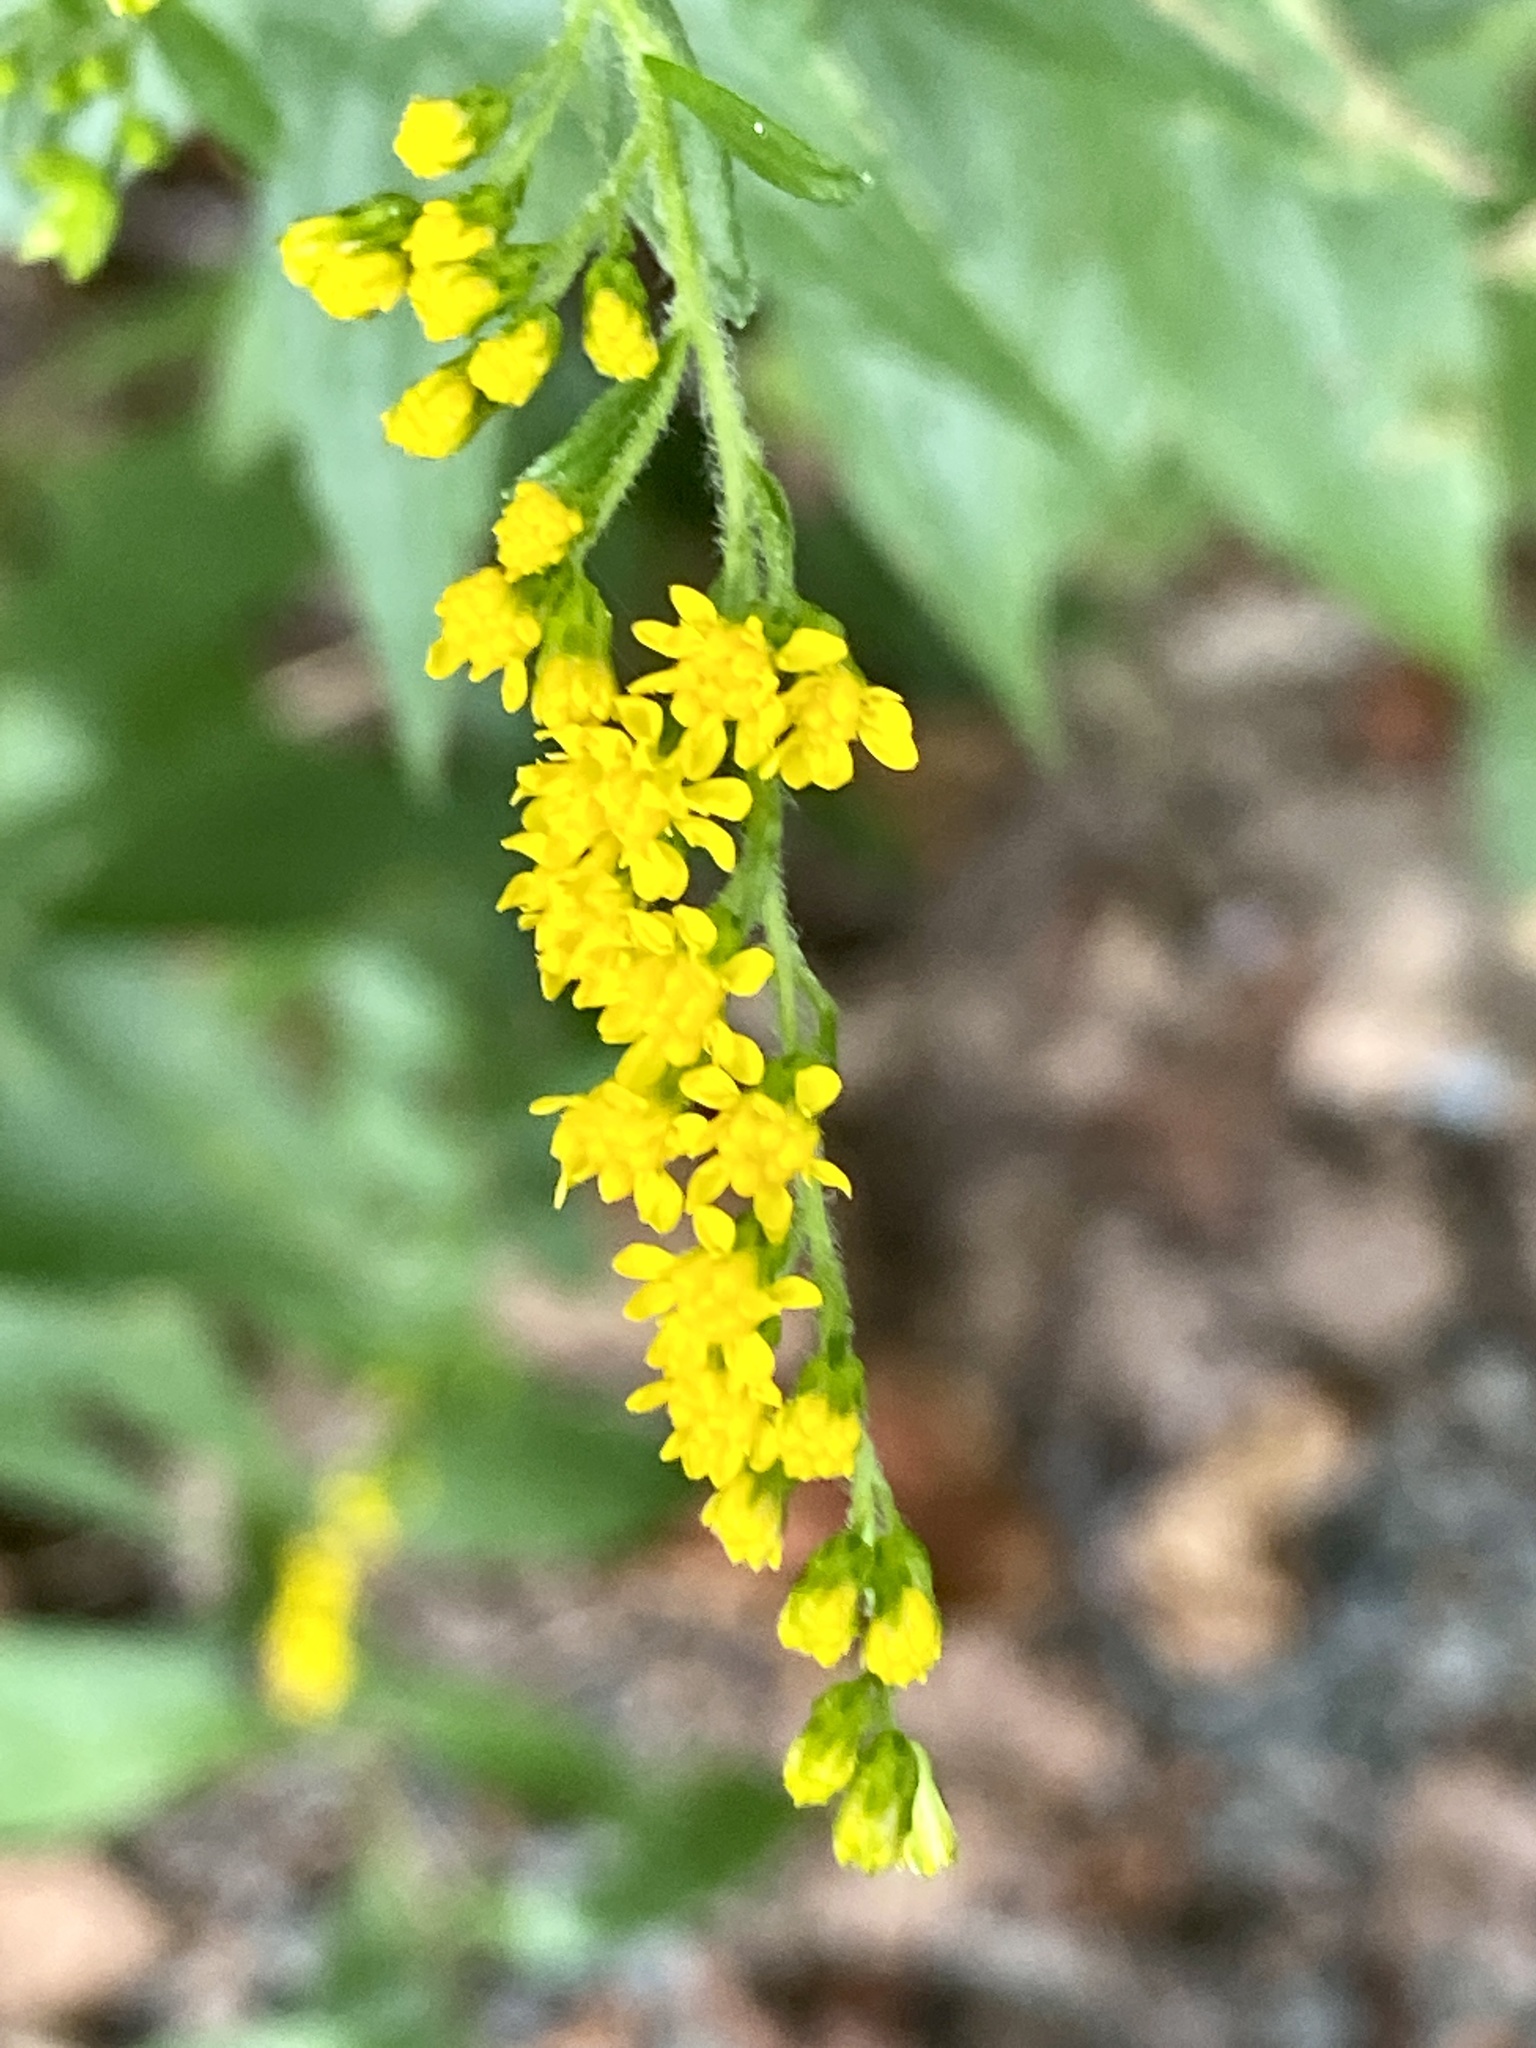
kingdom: Plantae
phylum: Tracheophyta
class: Magnoliopsida
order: Asterales
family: Asteraceae
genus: Solidago
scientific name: Solidago rugosa
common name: Rough-stemmed goldenrod
